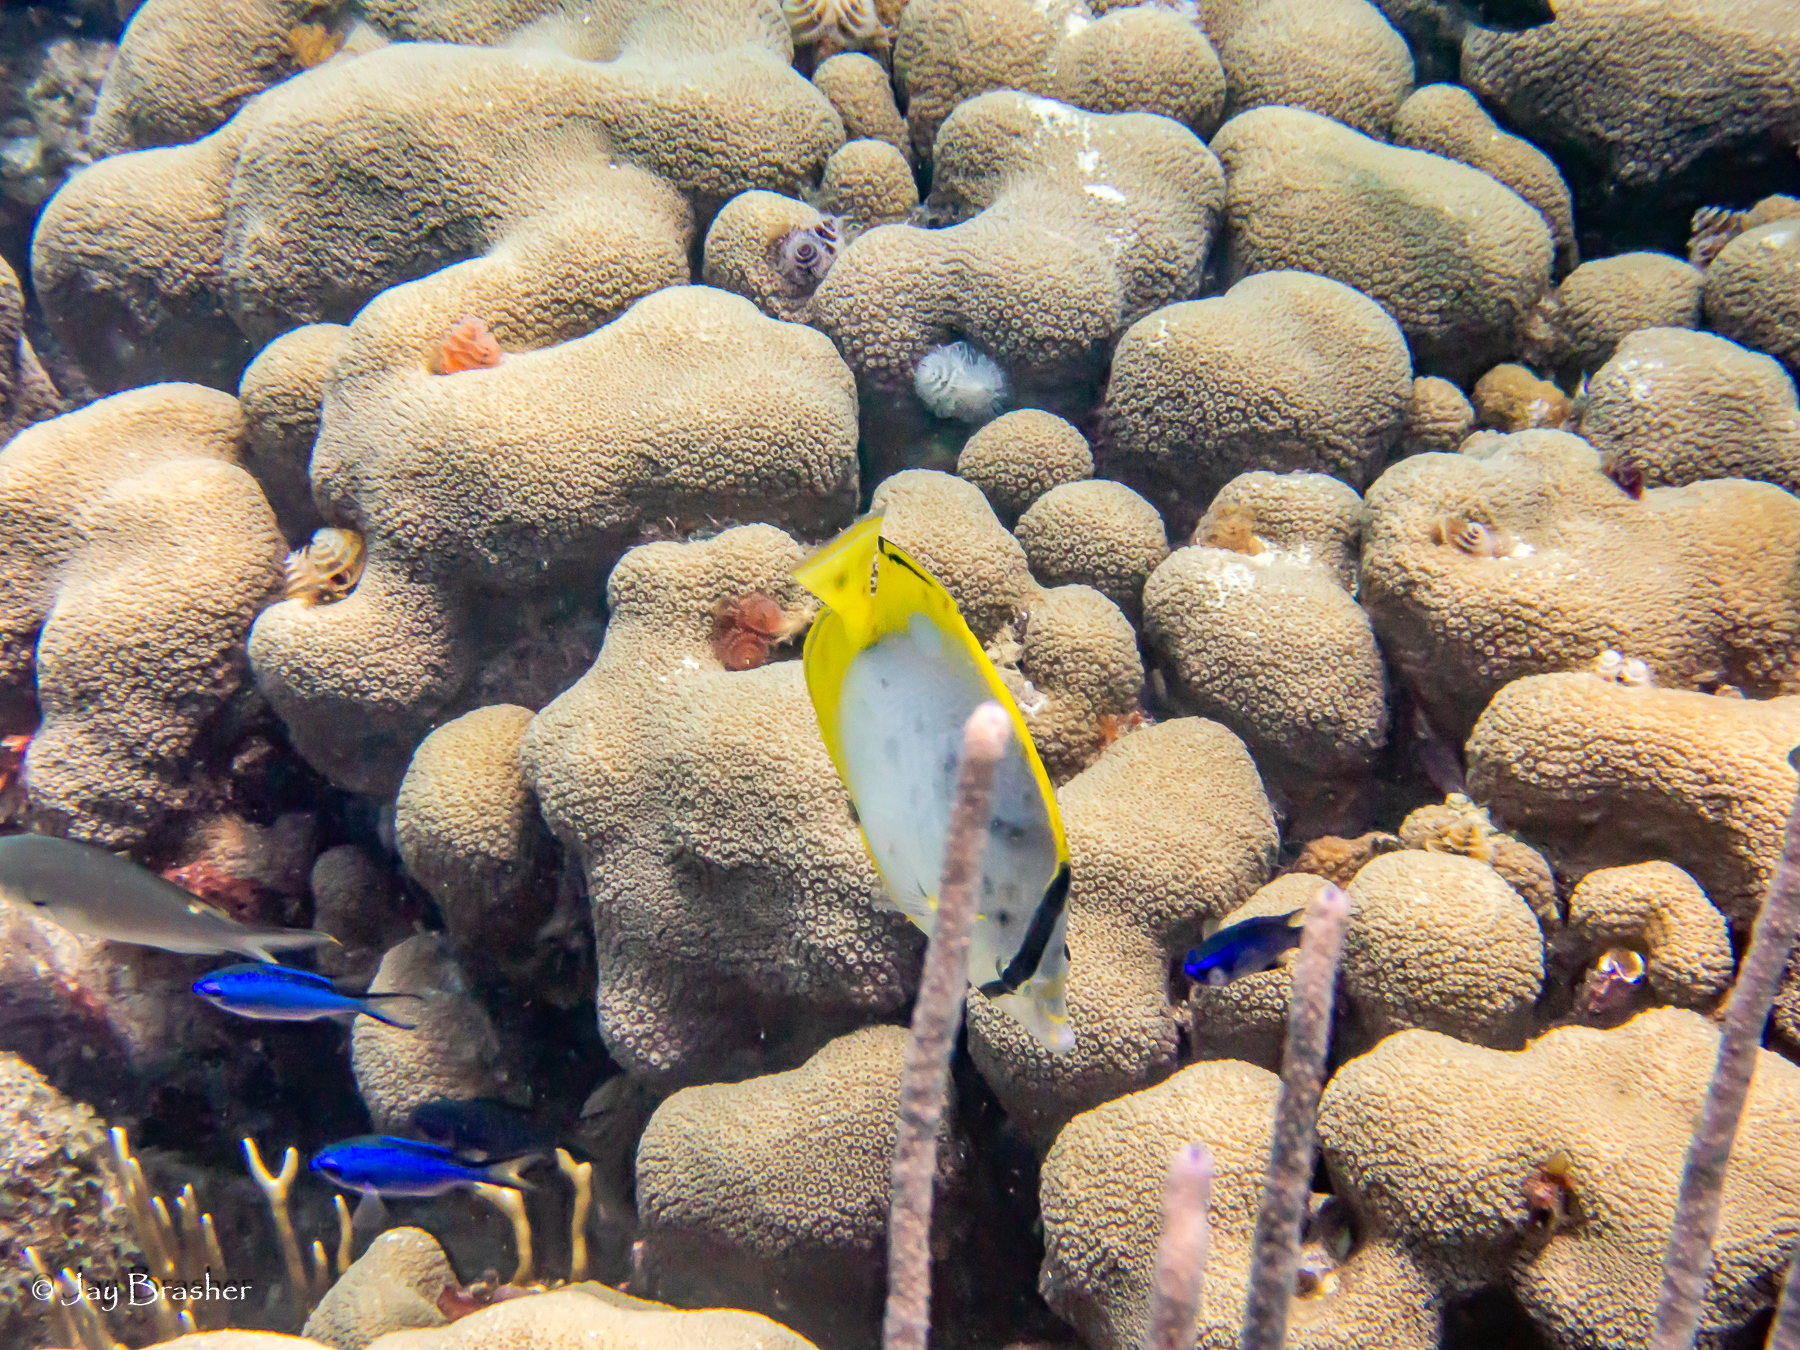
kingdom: Animalia
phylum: Cnidaria
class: Anthozoa
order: Scleractinia
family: Merulinidae
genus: Orbicella
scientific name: Orbicella annularis
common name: Boulder star coral
